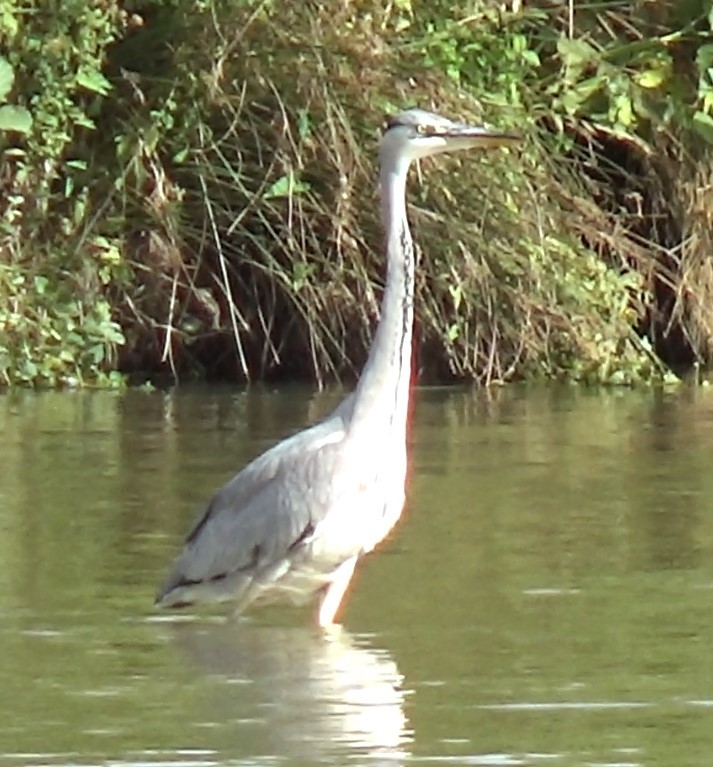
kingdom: Animalia
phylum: Chordata
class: Aves
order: Pelecaniformes
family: Ardeidae
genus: Ardea
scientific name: Ardea cinerea
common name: Grey heron
